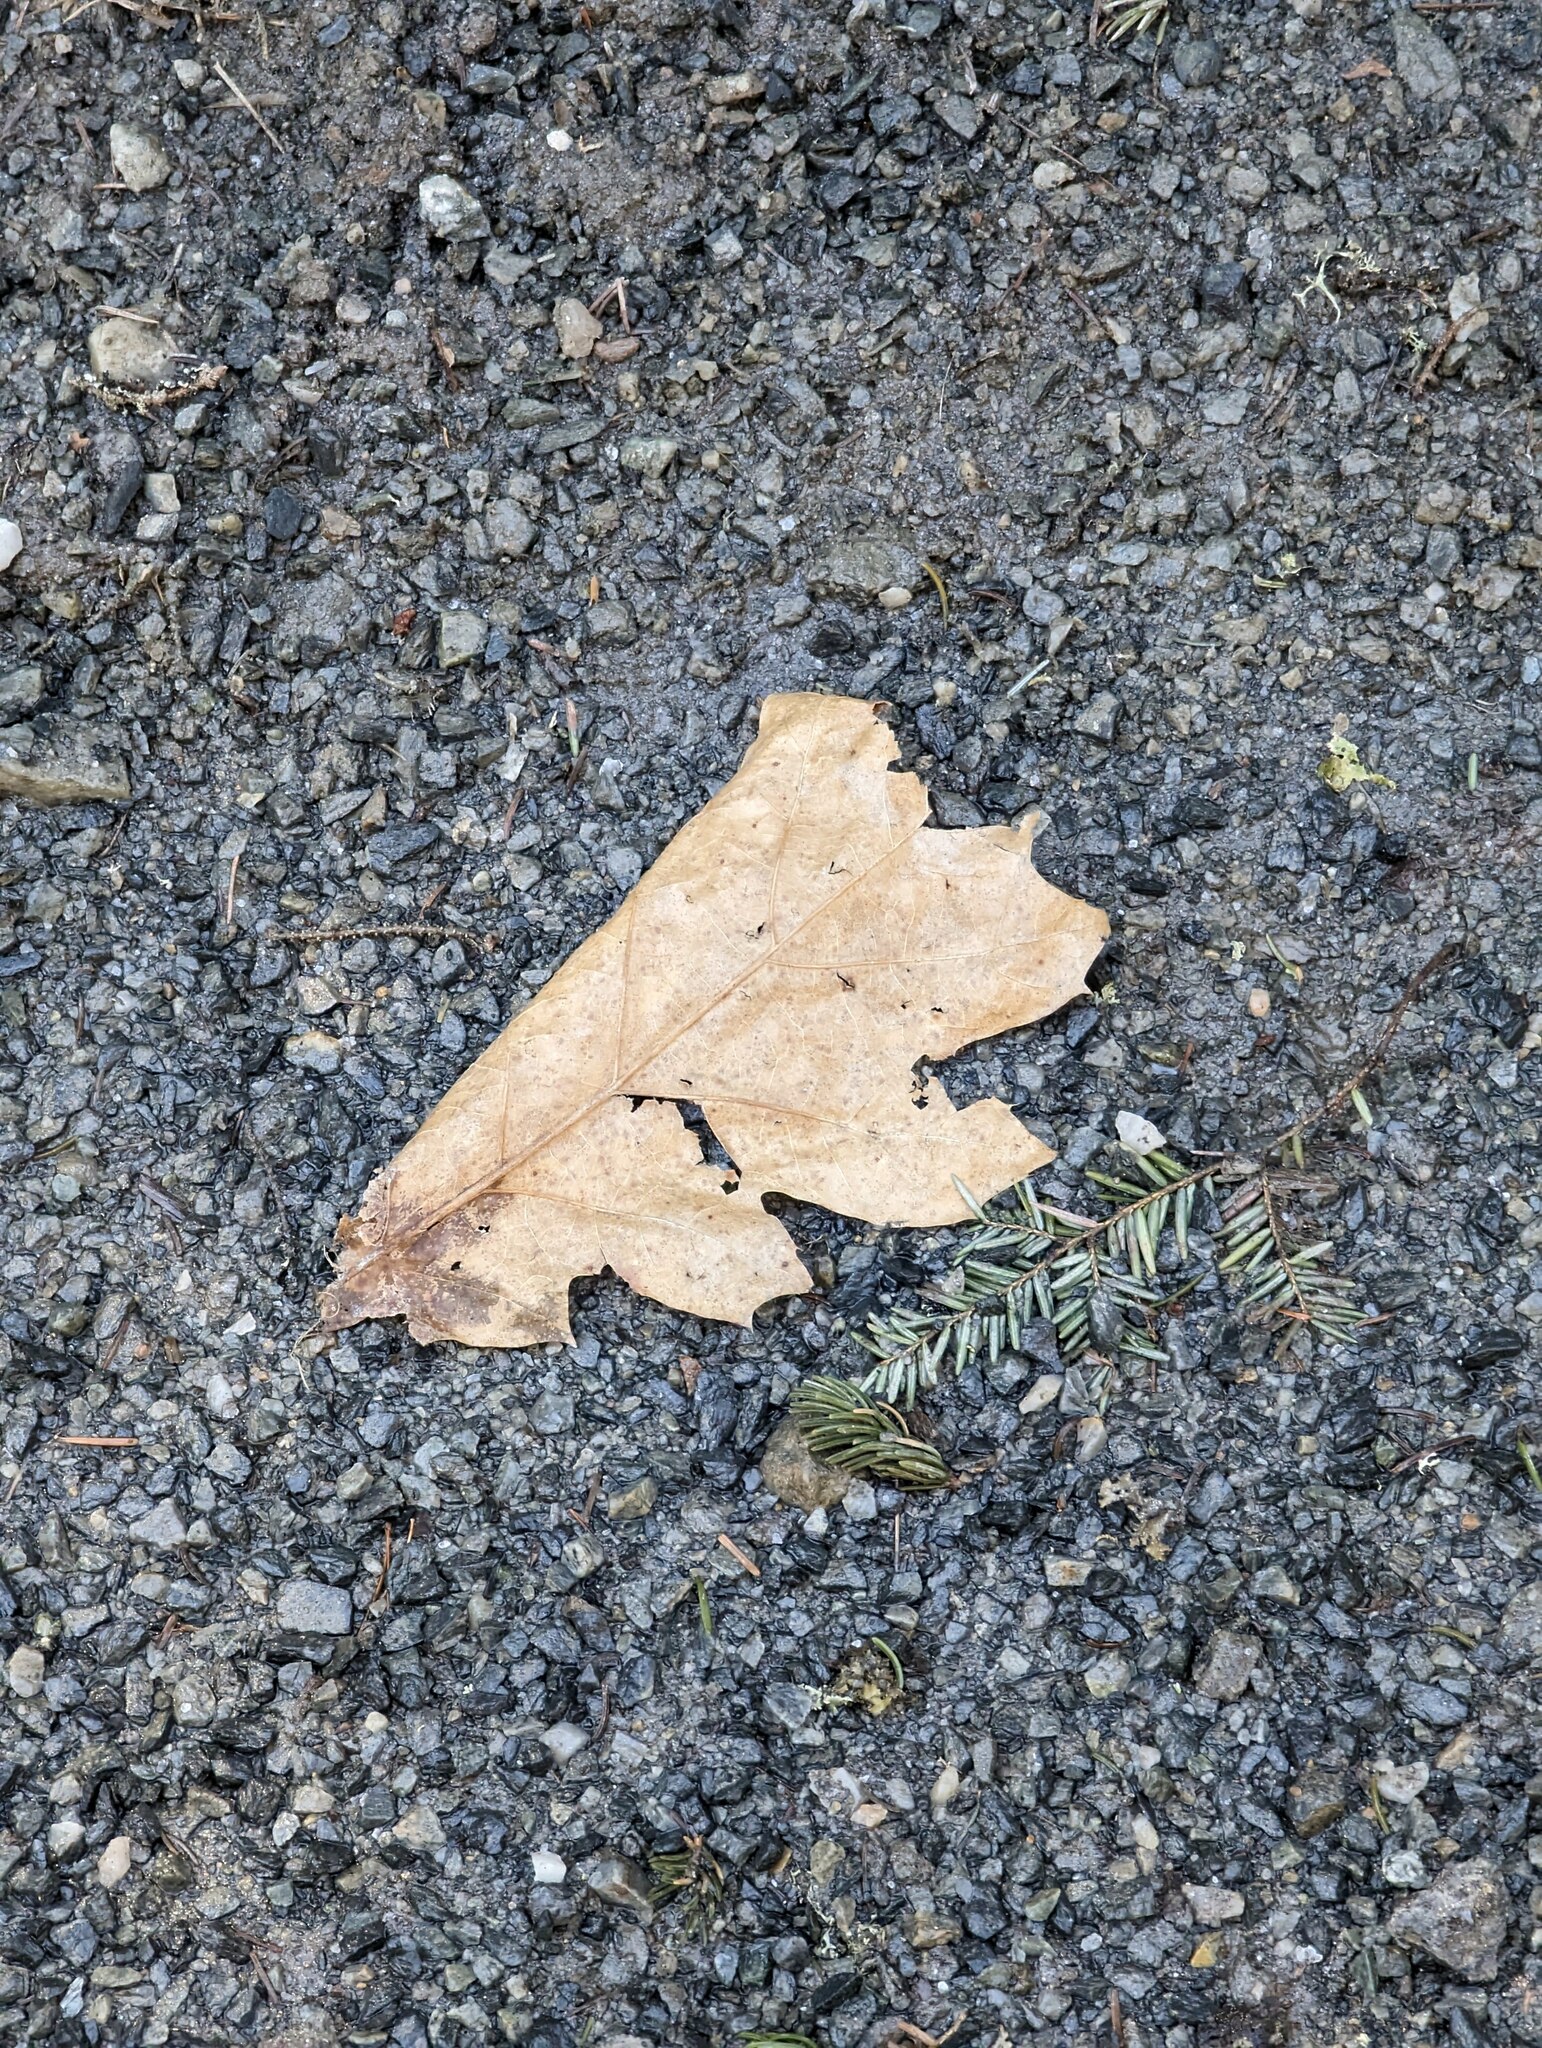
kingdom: Plantae
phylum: Tracheophyta
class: Magnoliopsida
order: Fagales
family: Fagaceae
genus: Quercus
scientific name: Quercus rubra
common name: Red oak
